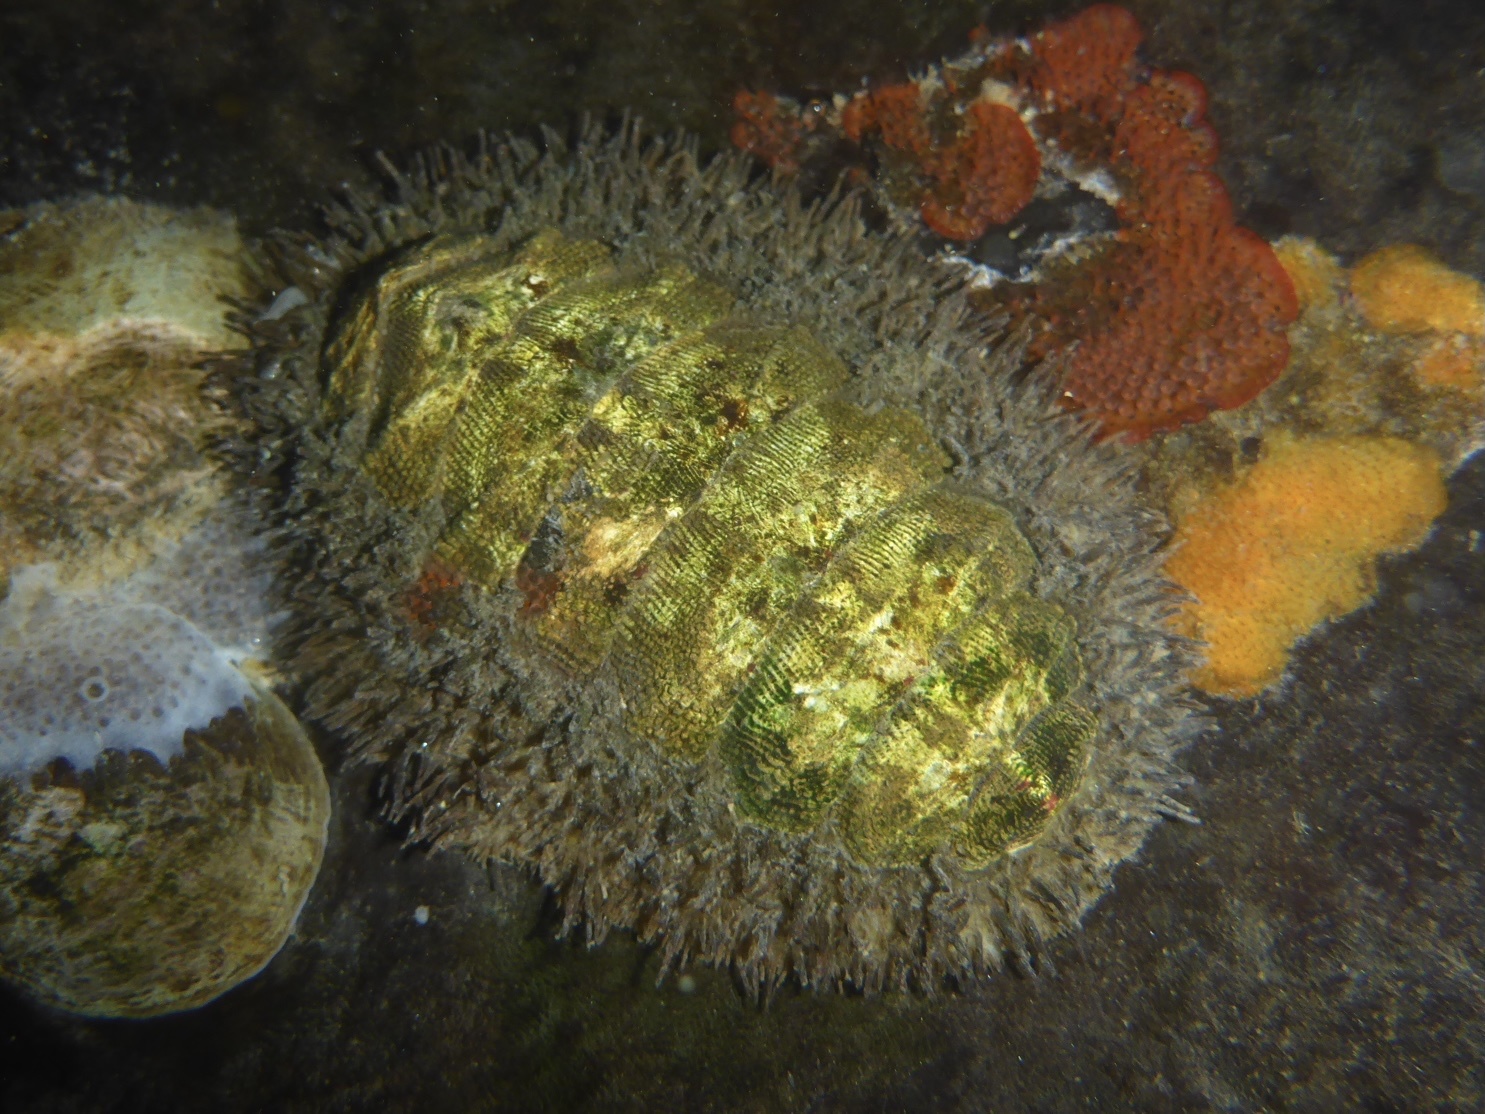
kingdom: Animalia
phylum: Mollusca
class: Polyplacophora
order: Chitonida
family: Mopaliidae
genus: Mopalia
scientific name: Mopalia muscosa
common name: Mossy chiton
